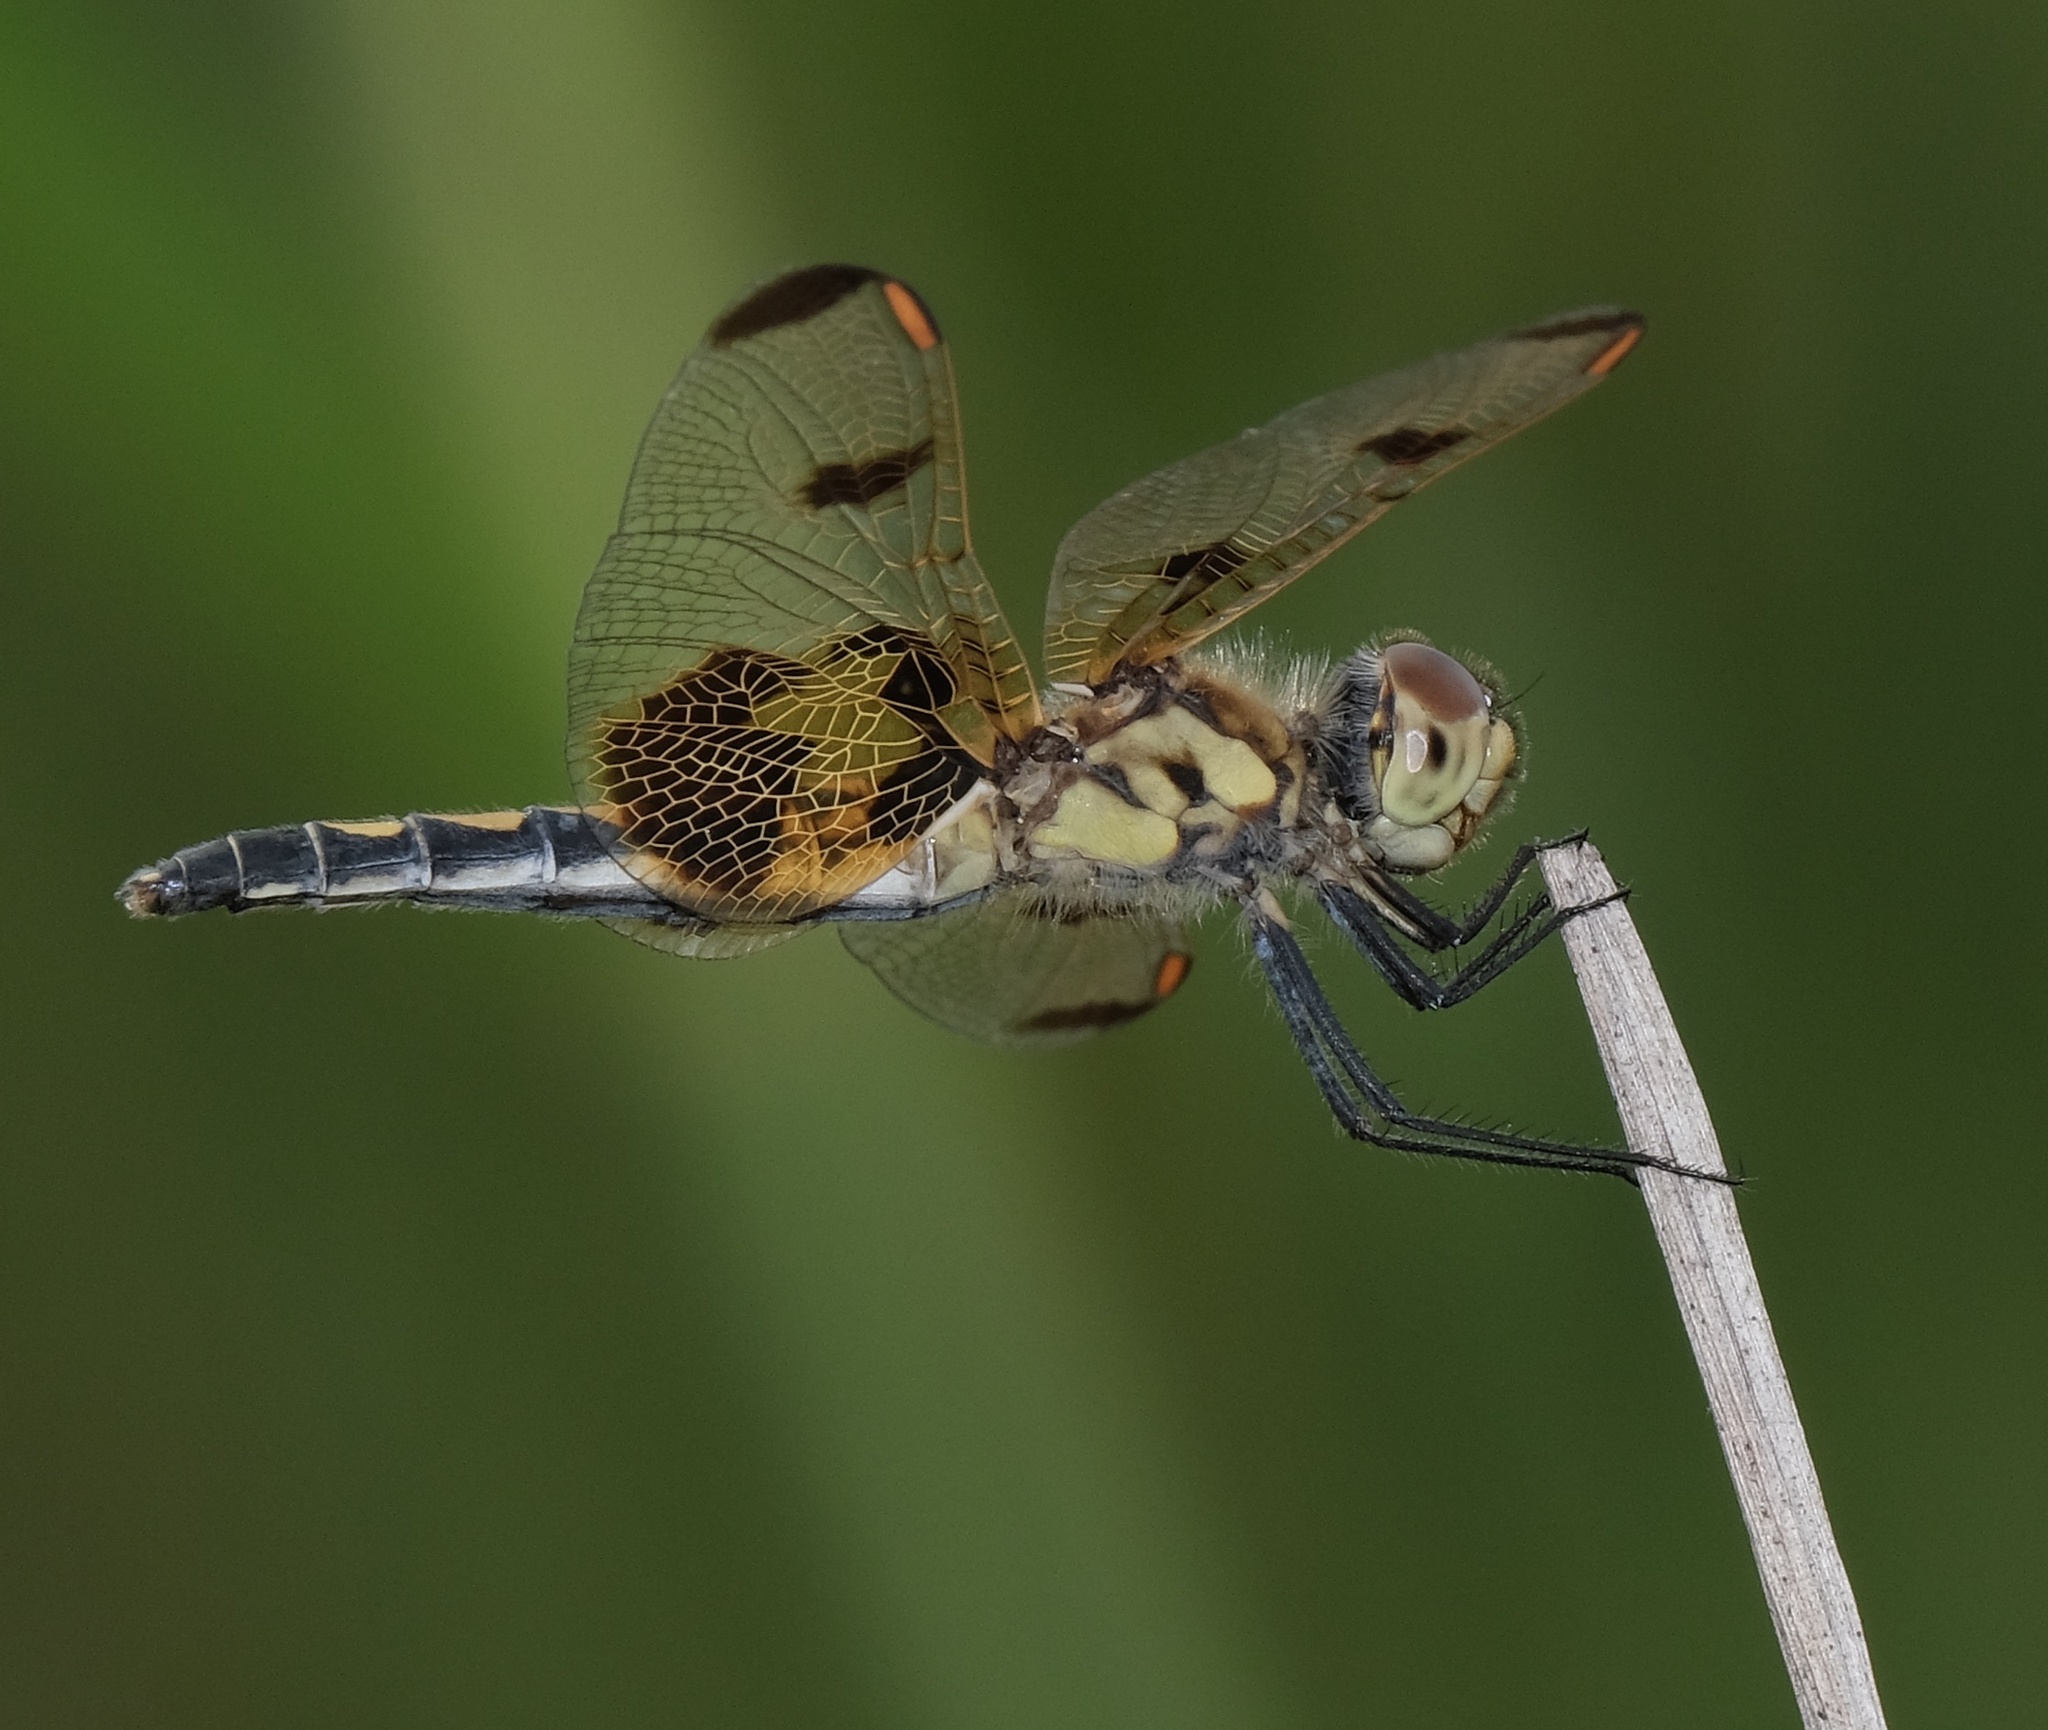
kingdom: Animalia
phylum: Arthropoda
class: Insecta
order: Odonata
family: Libellulidae
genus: Celithemis
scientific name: Celithemis elisa
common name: Calico pennant
